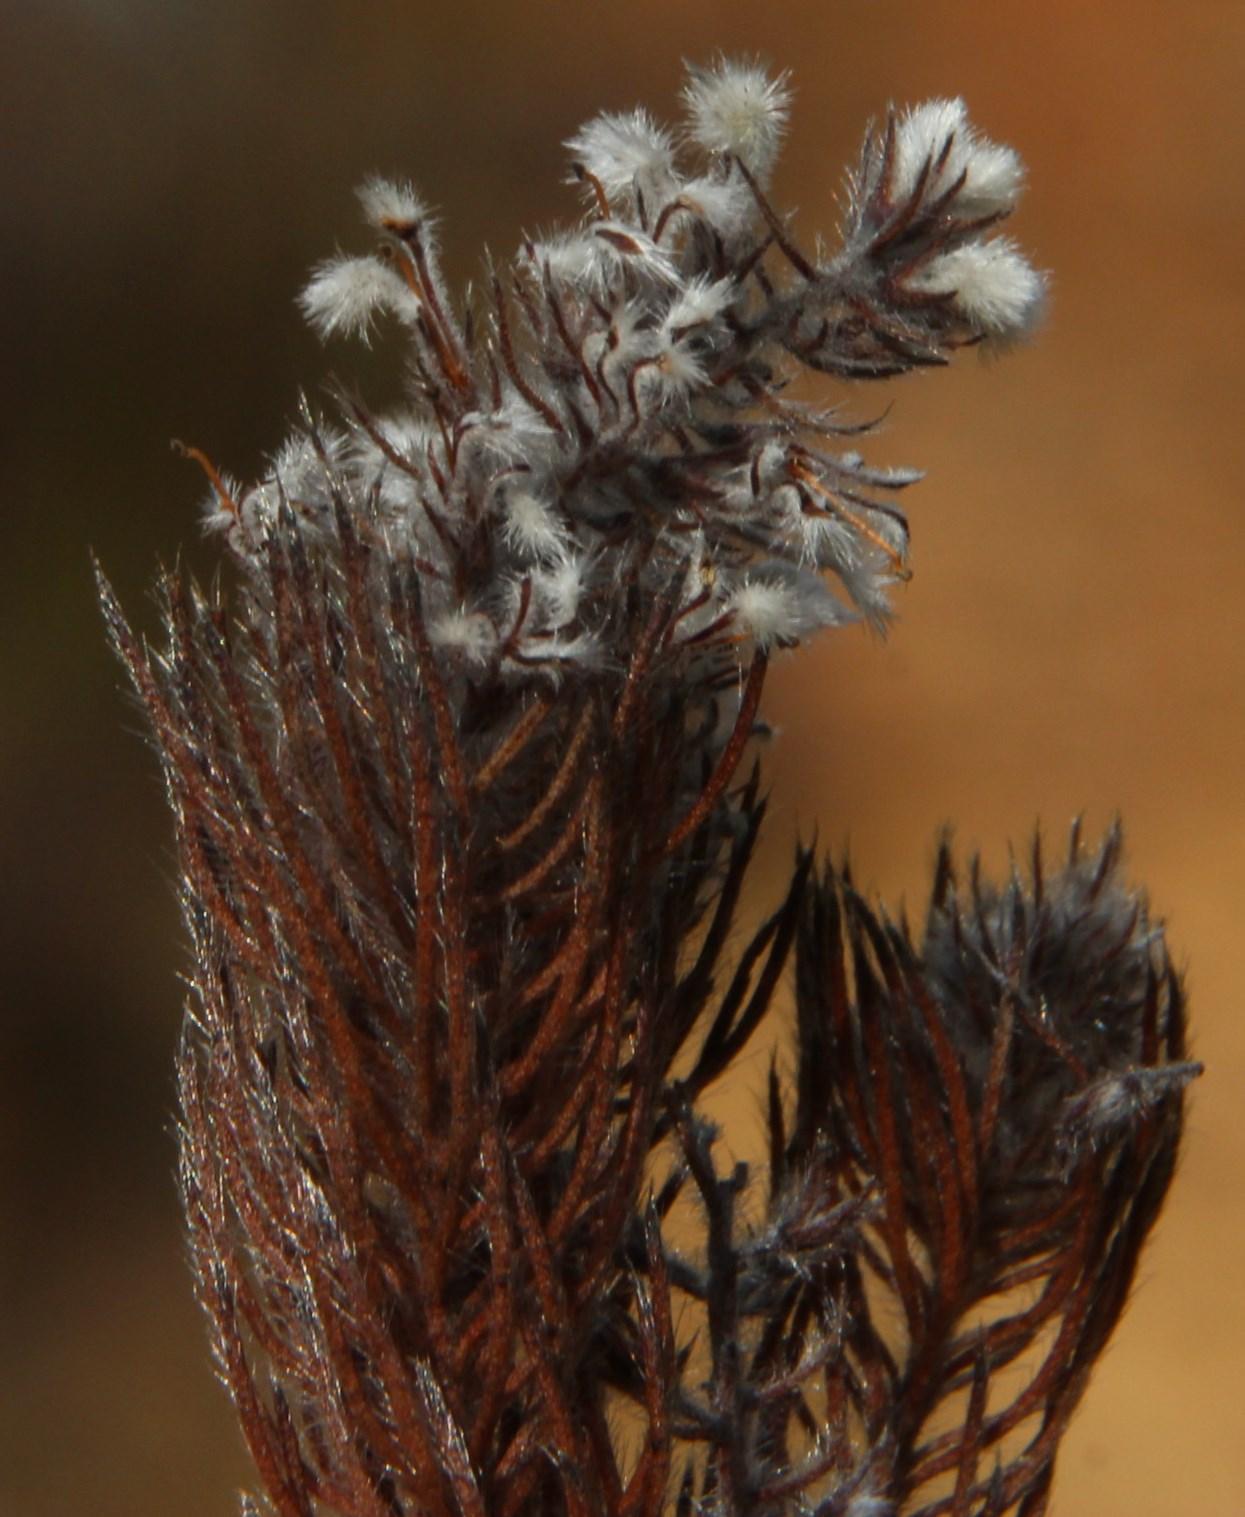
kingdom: Plantae
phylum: Tracheophyta
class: Magnoliopsida
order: Proteales
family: Proteaceae
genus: Spatalla
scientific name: Spatalla parilis
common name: Spike spoon
